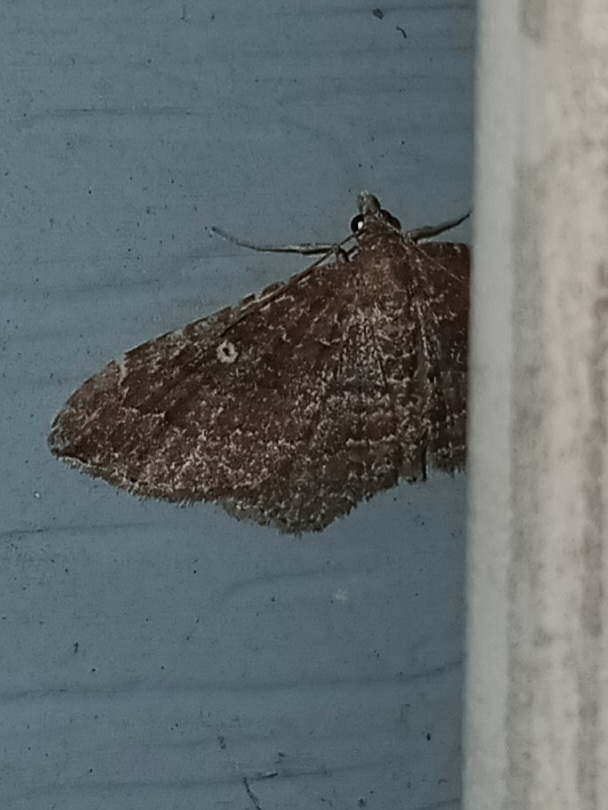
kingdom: Animalia
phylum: Arthropoda
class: Insecta
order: Lepidoptera
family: Geometridae
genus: Orthonama
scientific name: Orthonama obstipata
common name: The gem
